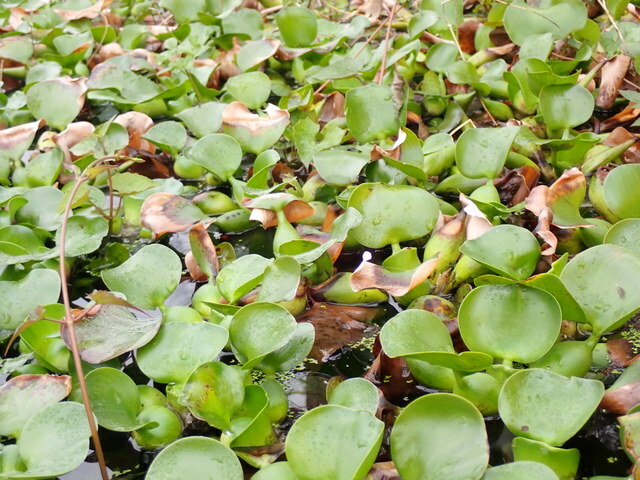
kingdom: Plantae
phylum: Tracheophyta
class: Liliopsida
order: Commelinales
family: Pontederiaceae
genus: Pontederia
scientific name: Pontederia crassipes
